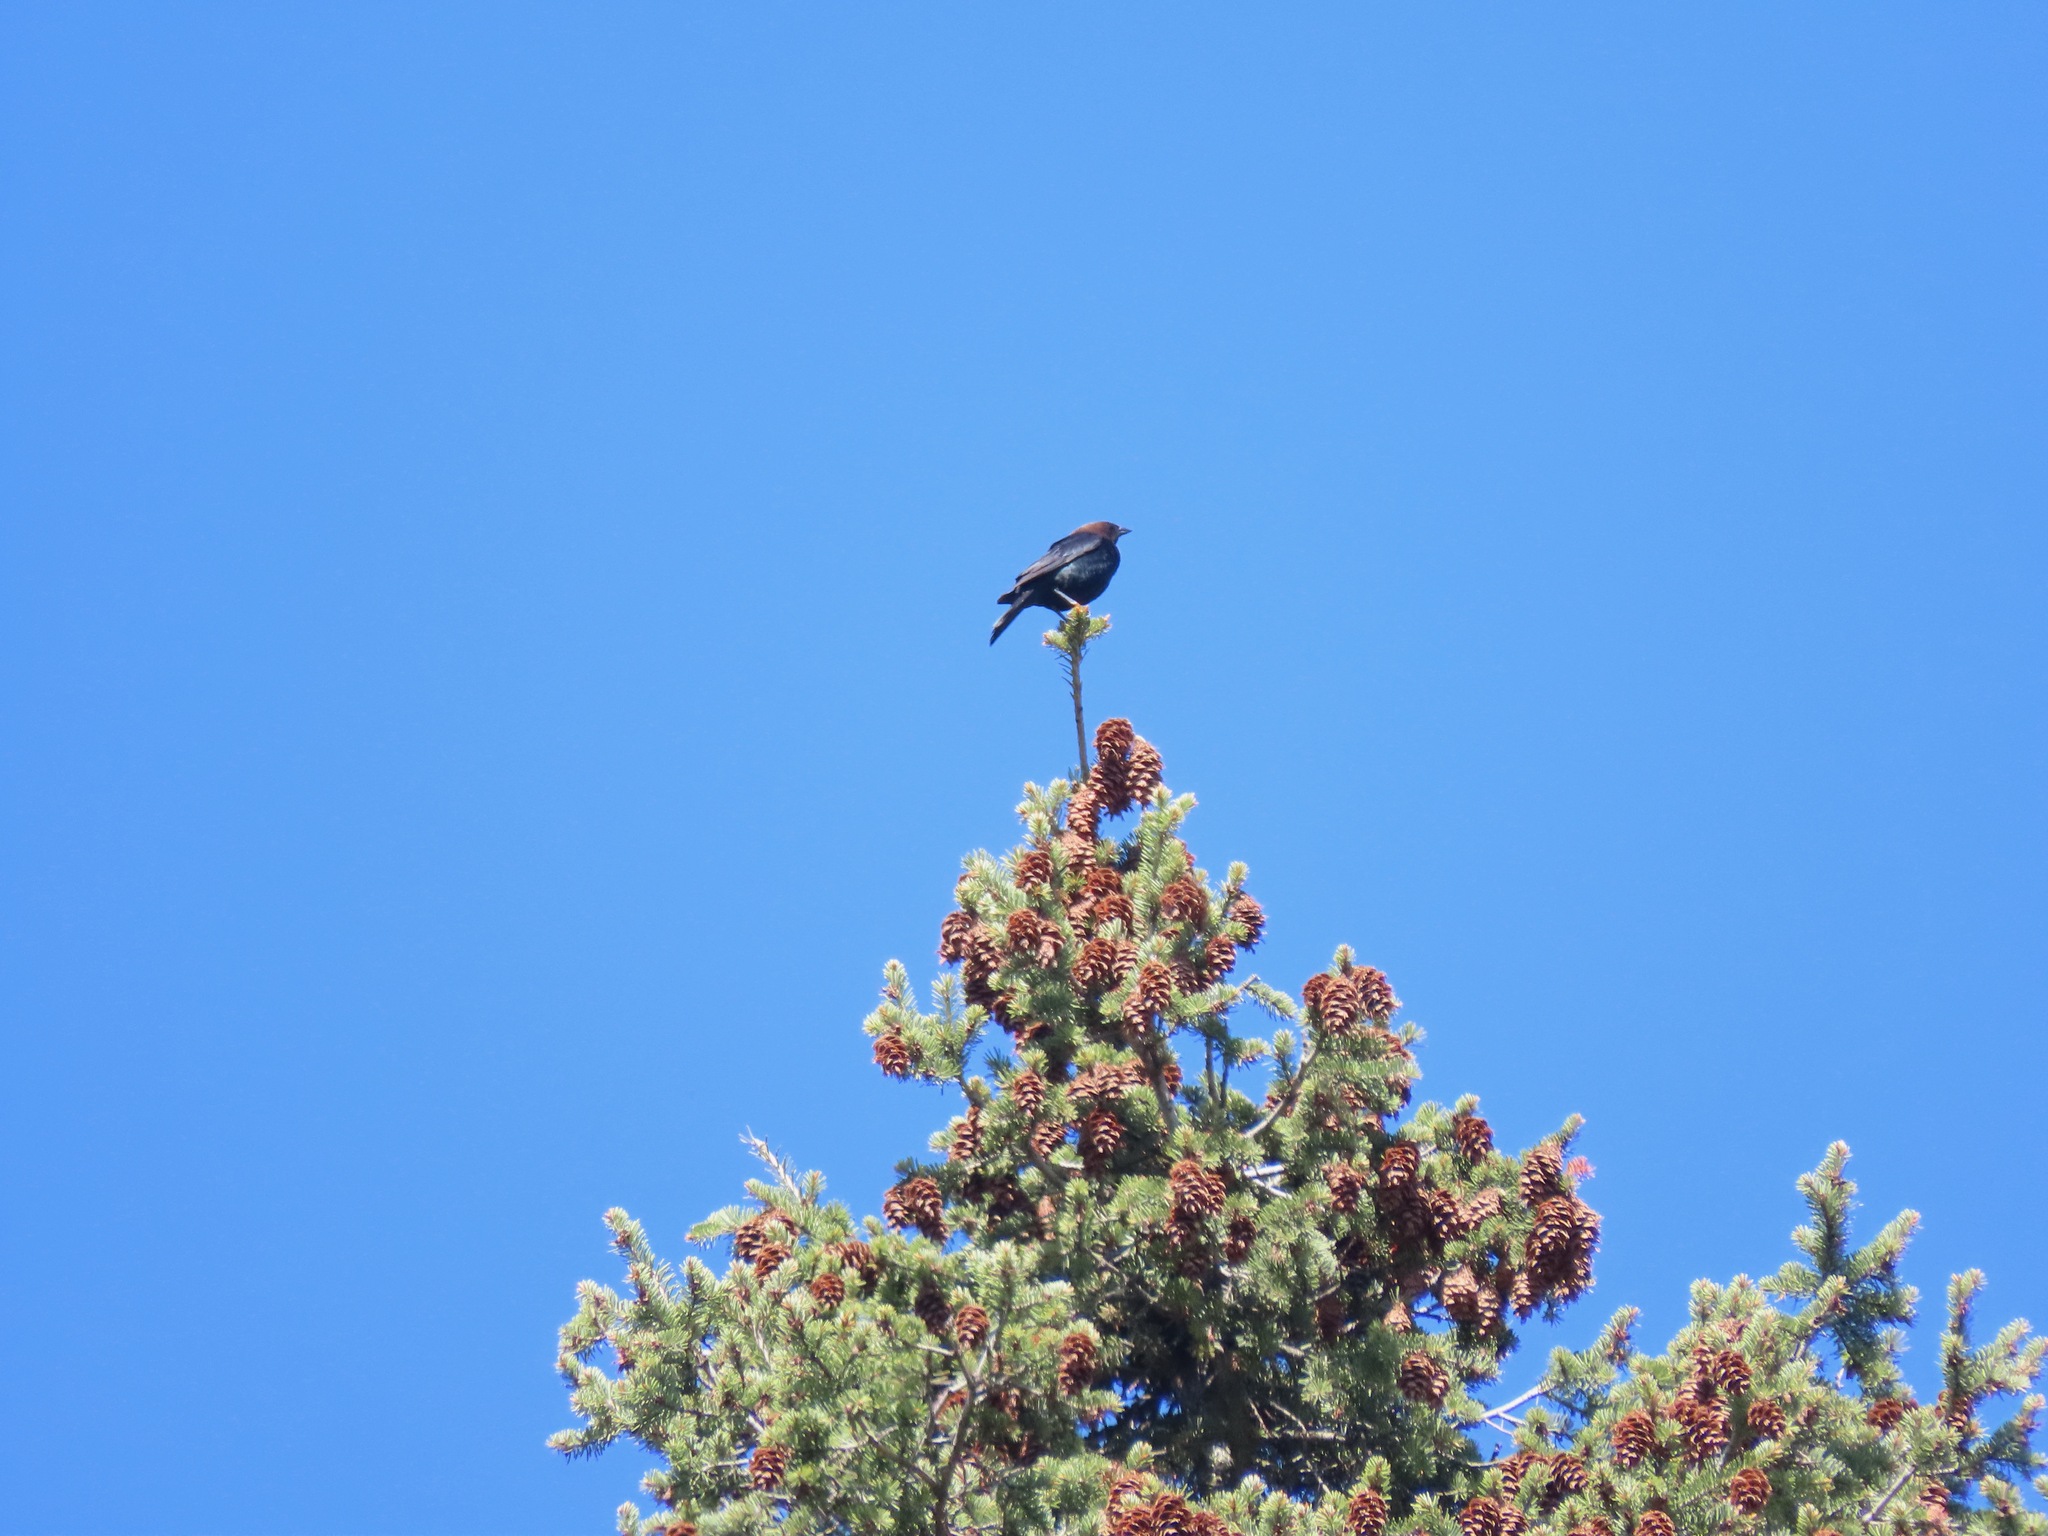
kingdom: Animalia
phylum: Chordata
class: Aves
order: Passeriformes
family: Icteridae
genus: Molothrus
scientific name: Molothrus ater
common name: Brown-headed cowbird
